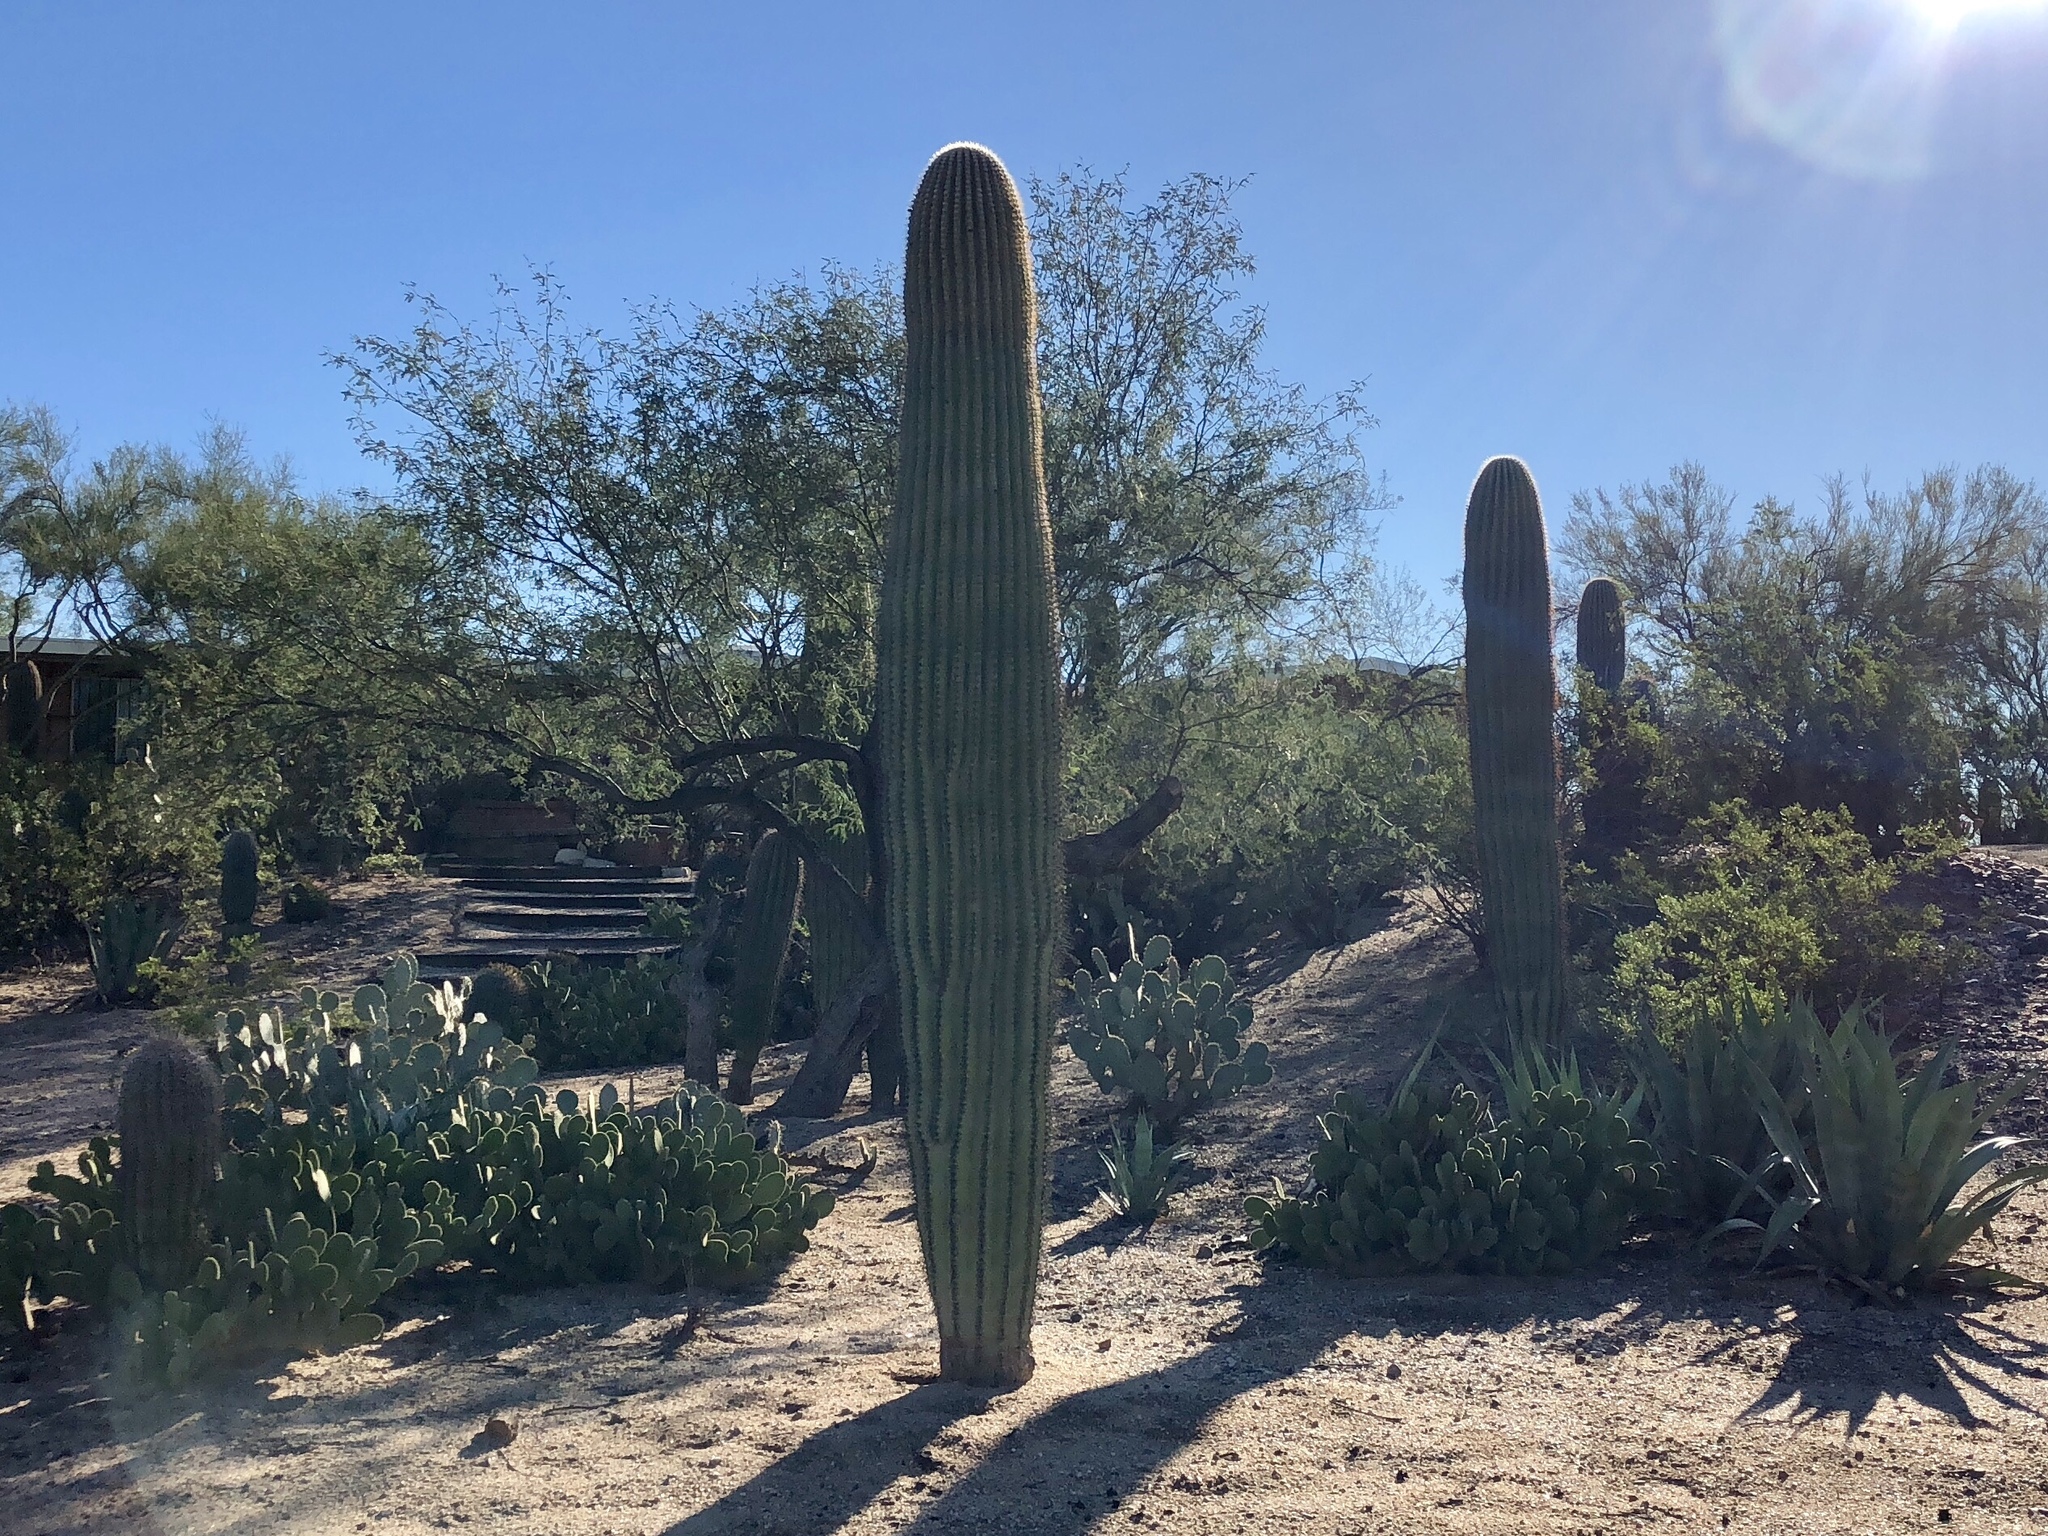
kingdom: Plantae
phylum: Tracheophyta
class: Magnoliopsida
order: Caryophyllales
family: Cactaceae
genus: Carnegiea
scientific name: Carnegiea gigantea
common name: Saguaro
